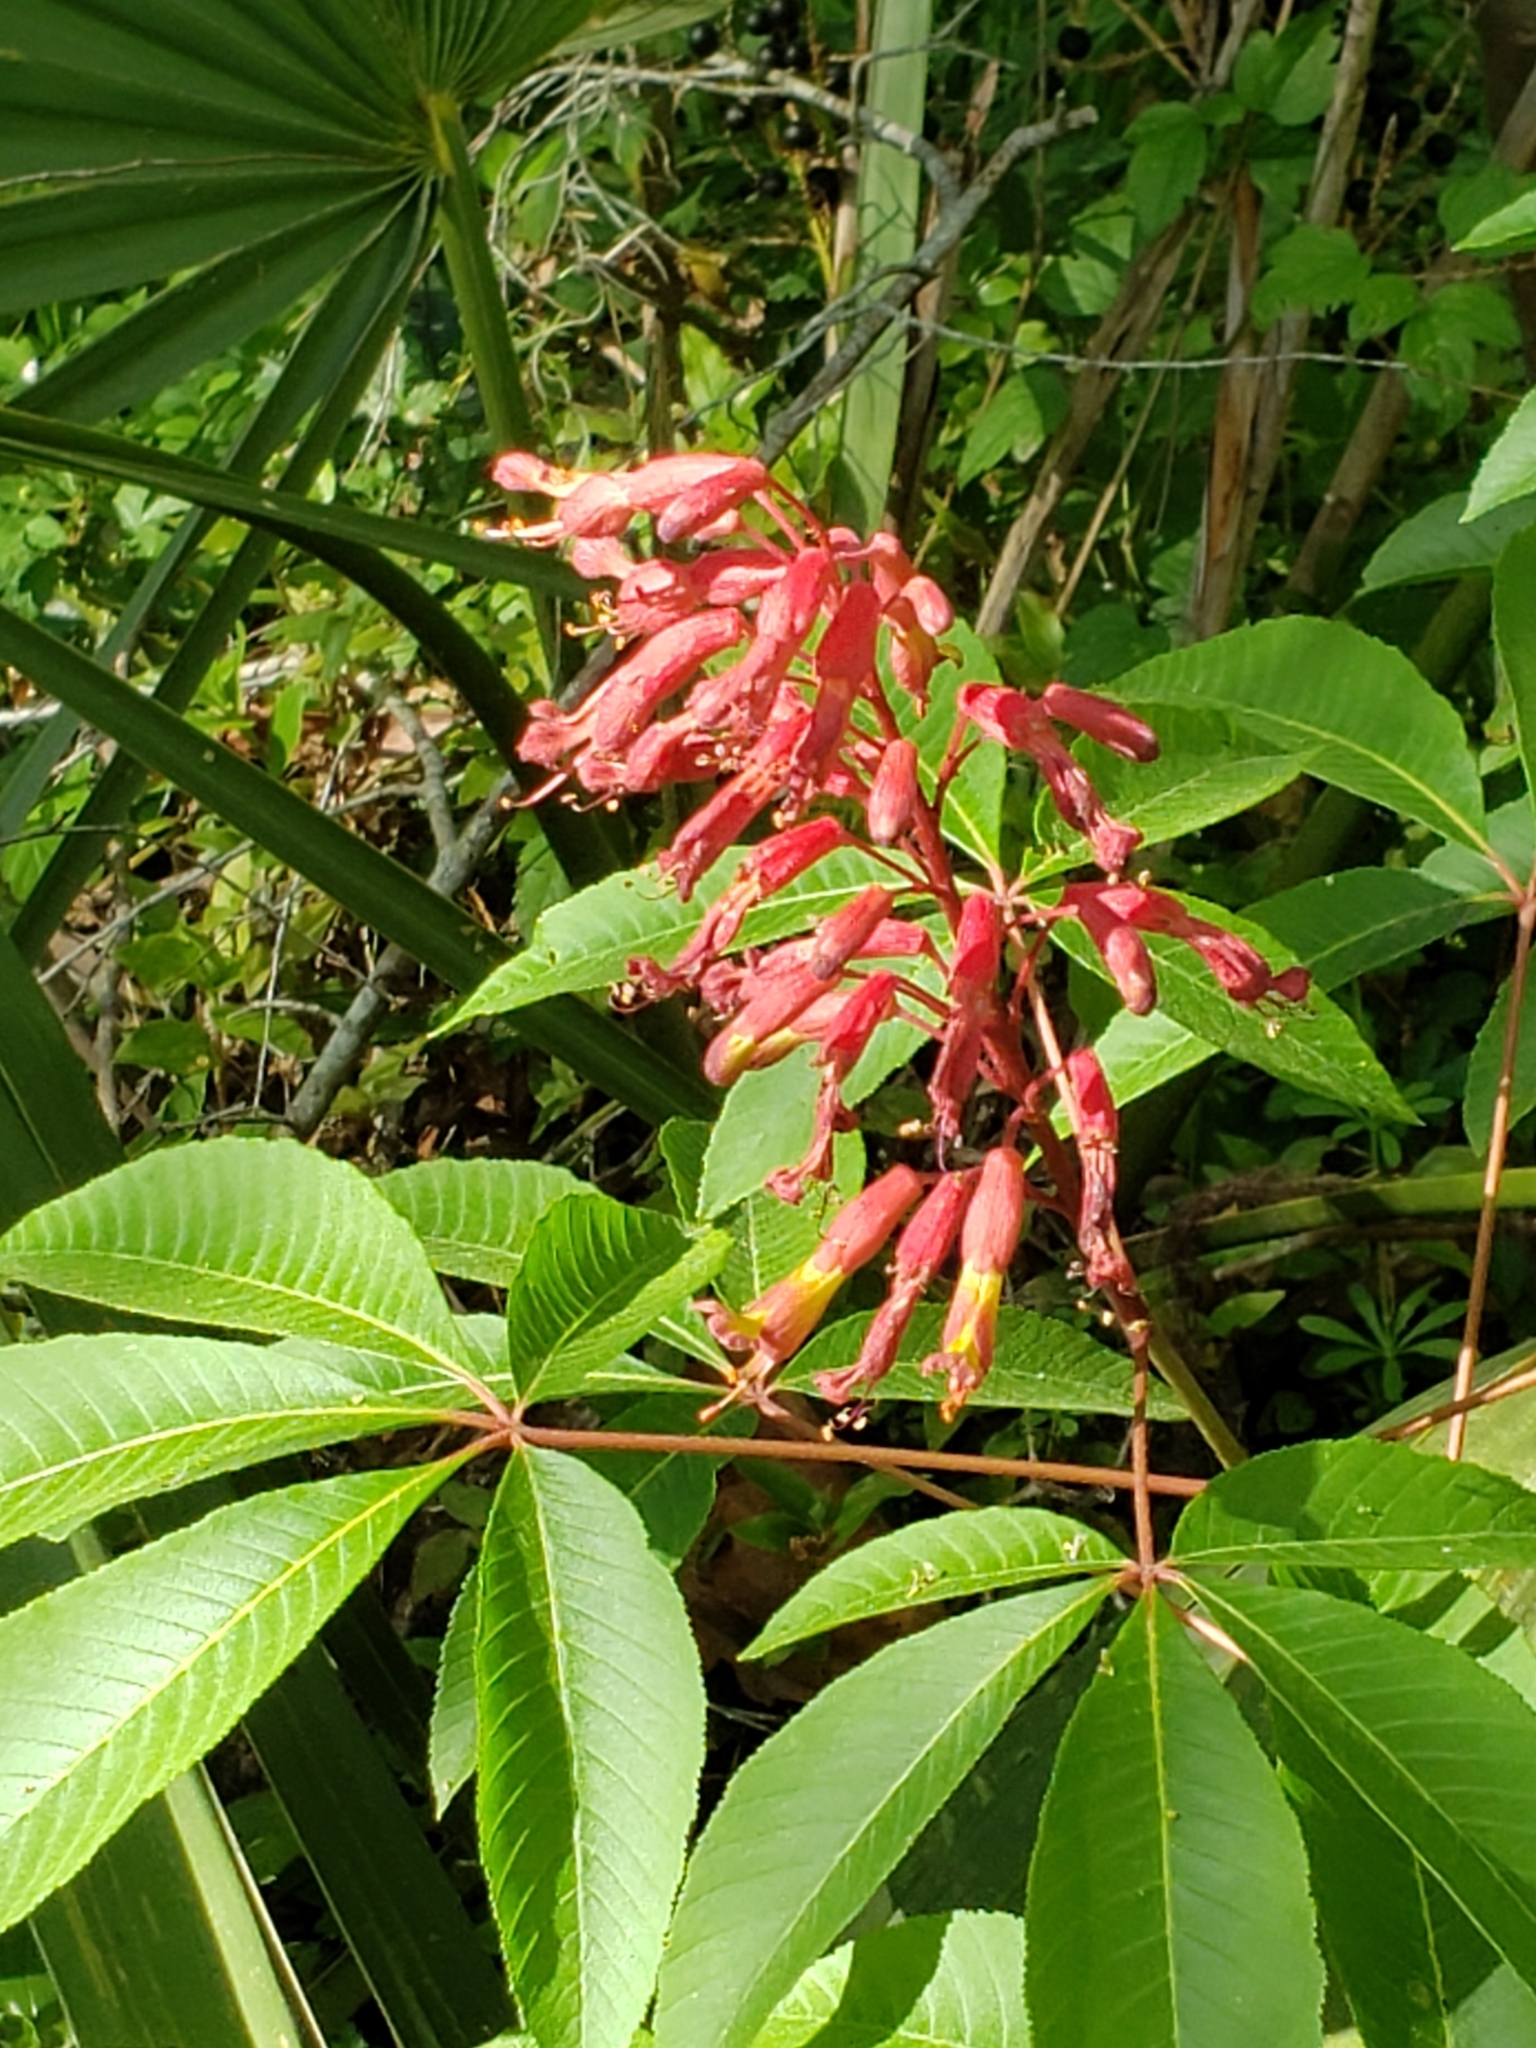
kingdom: Plantae
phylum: Tracheophyta
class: Magnoliopsida
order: Sapindales
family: Sapindaceae
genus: Aesculus
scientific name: Aesculus pavia
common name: Red buckeye
